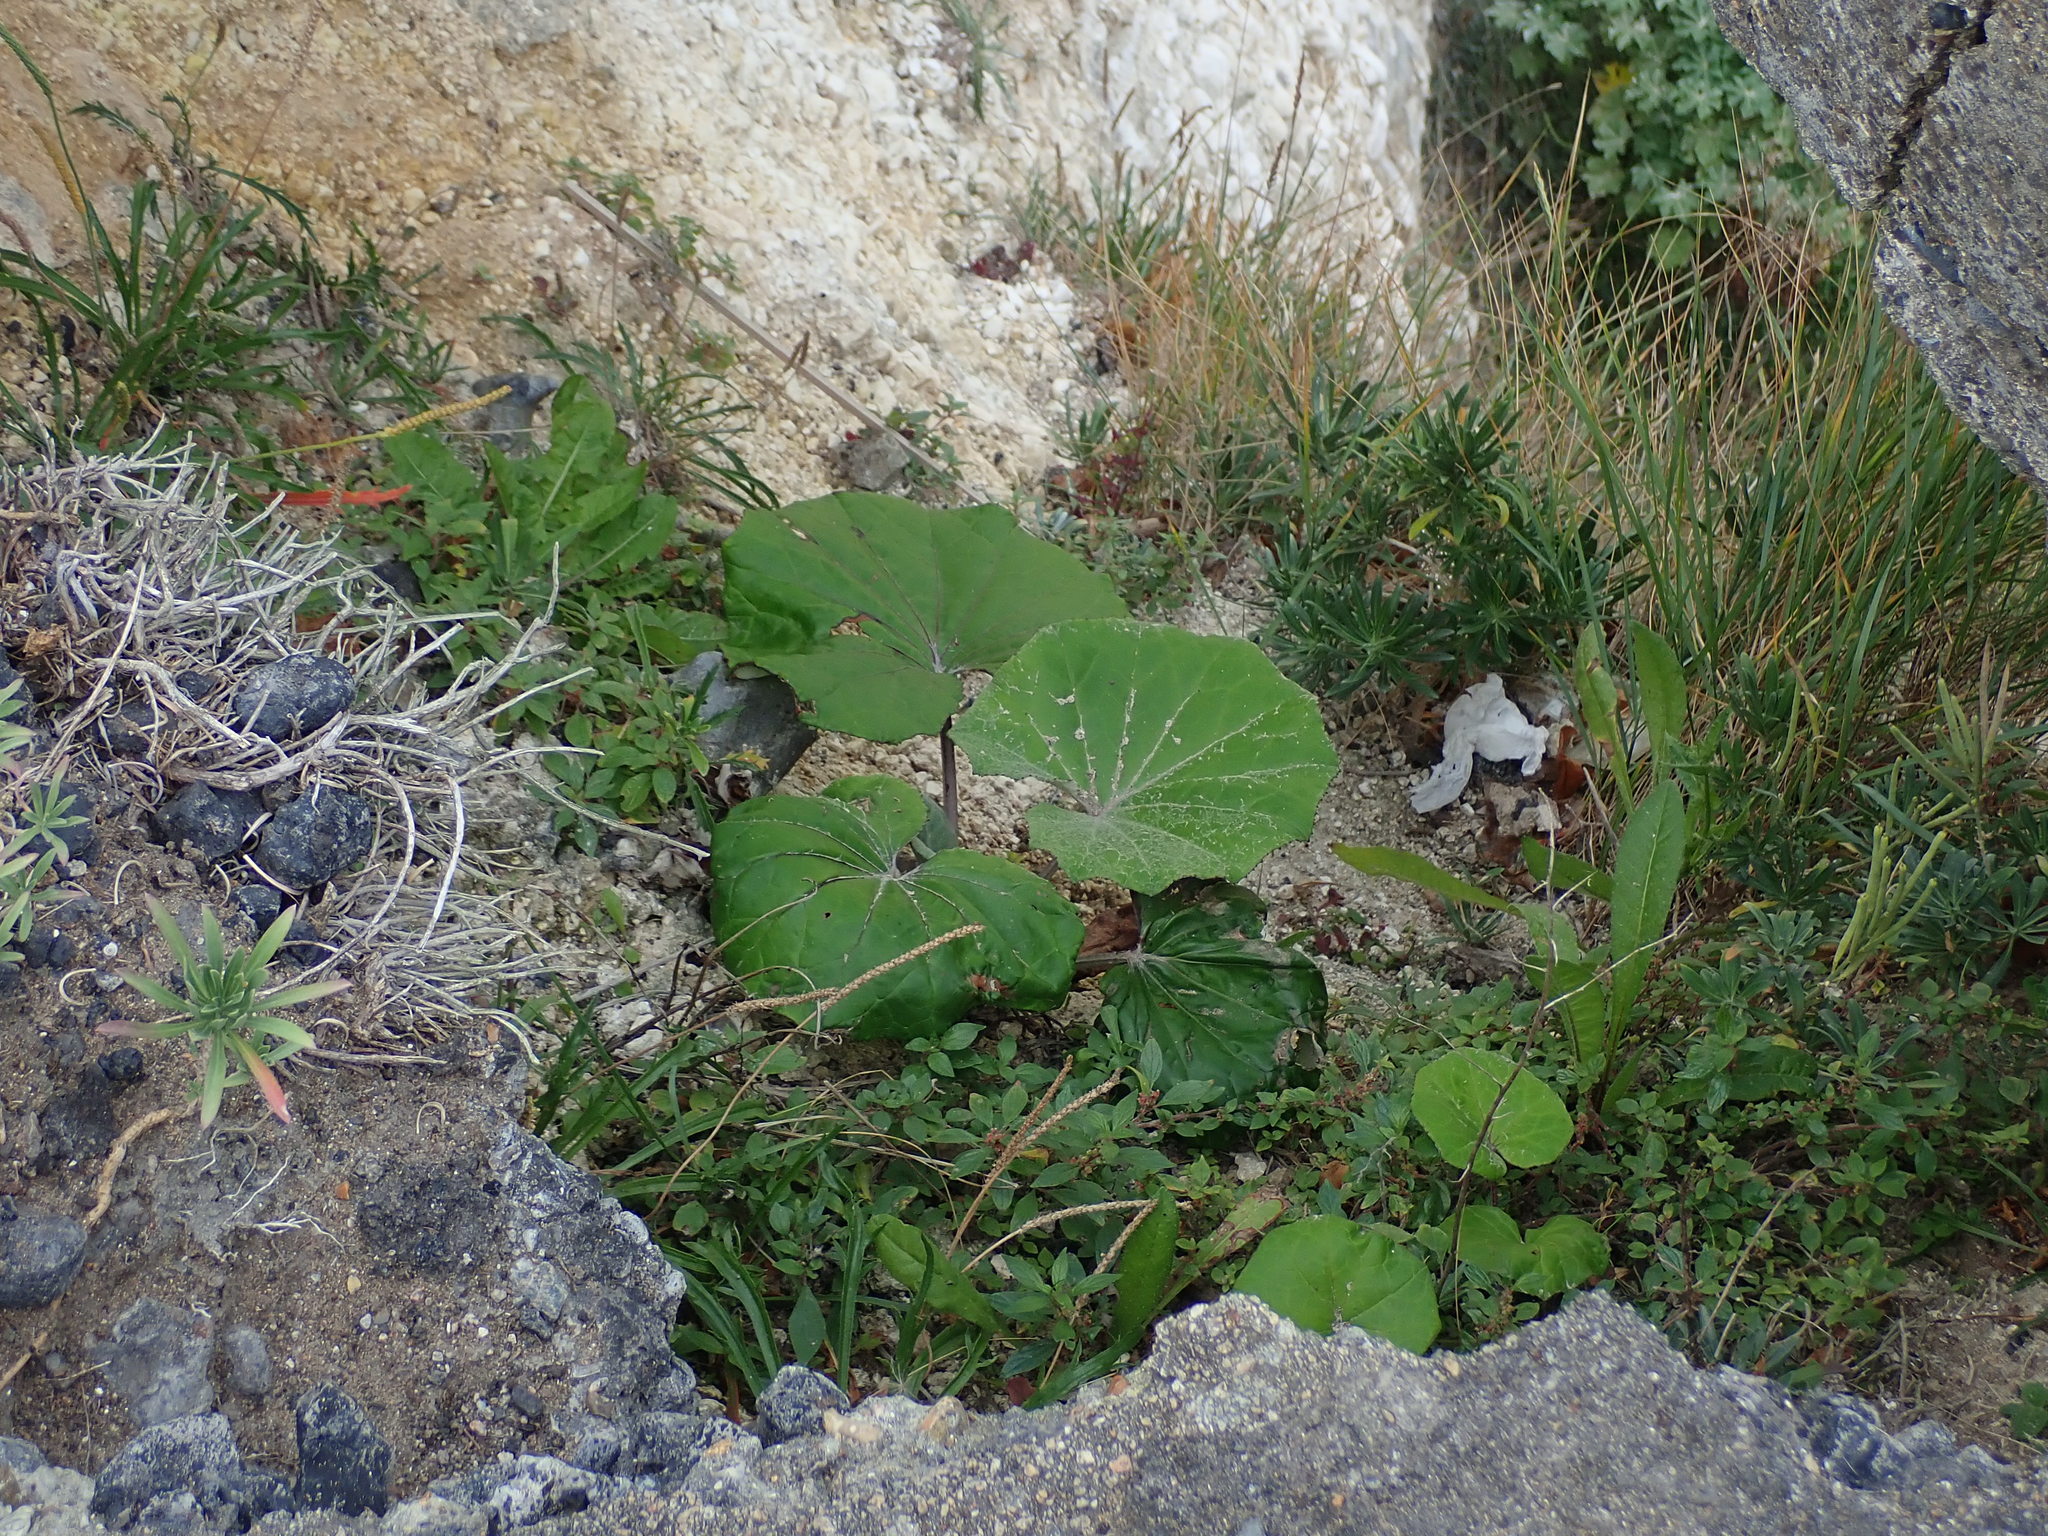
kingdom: Plantae
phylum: Tracheophyta
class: Magnoliopsida
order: Asterales
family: Asteraceae
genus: Tussilago
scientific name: Tussilago farfara
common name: Coltsfoot
